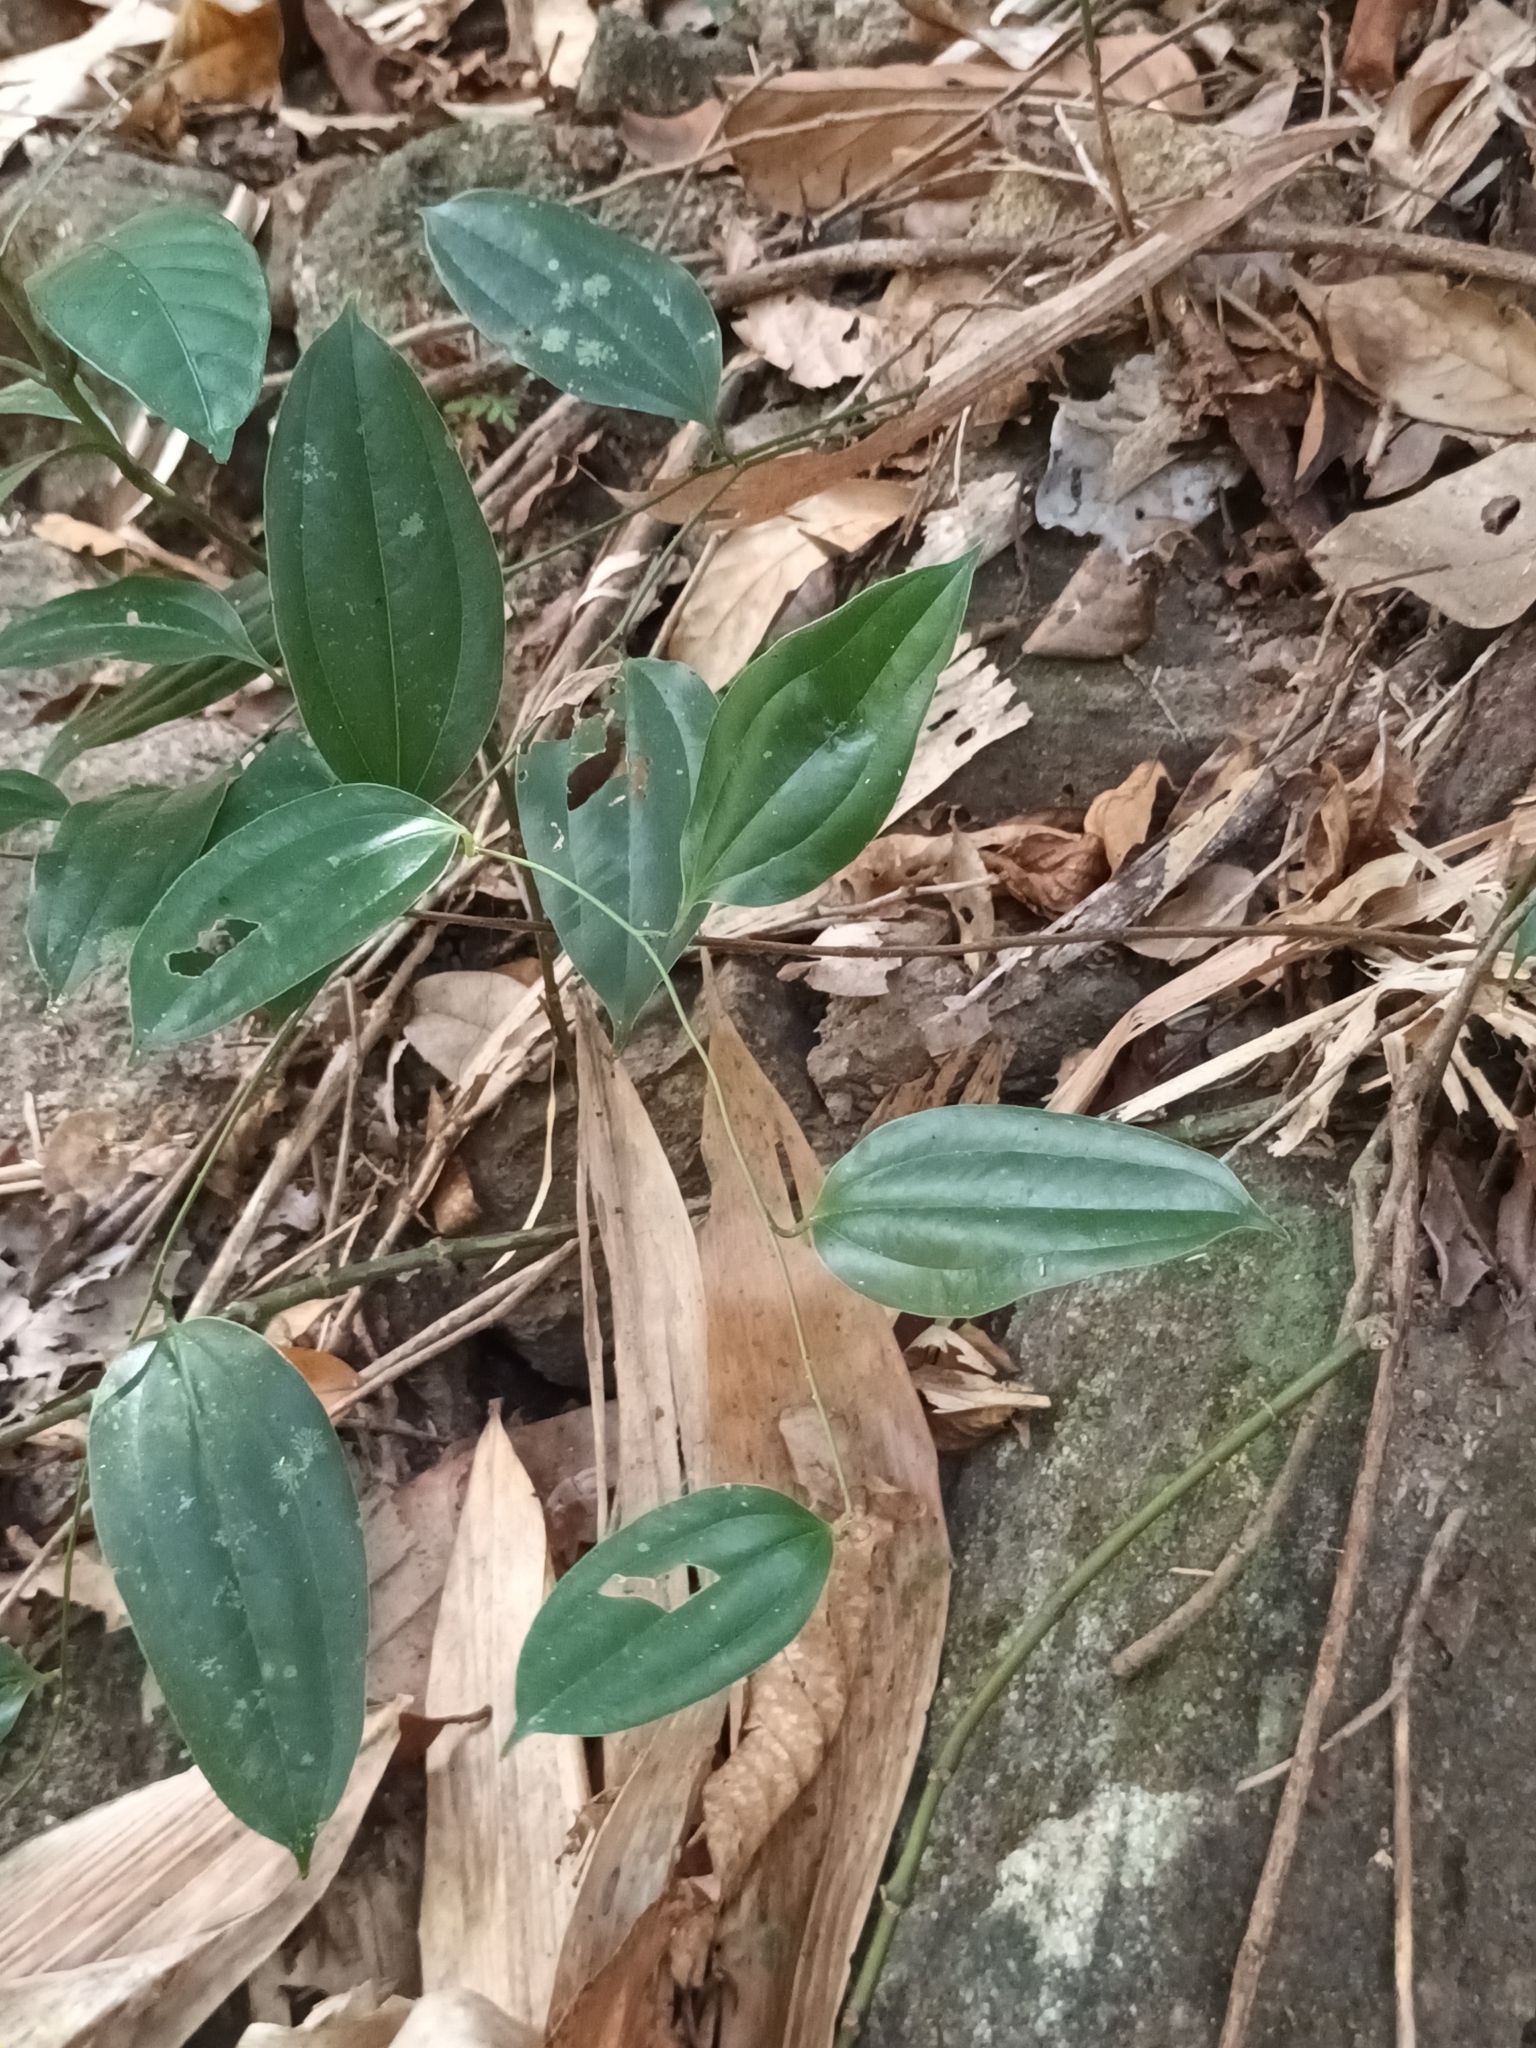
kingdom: Plantae
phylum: Tracheophyta
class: Liliopsida
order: Liliales
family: Smilacaceae
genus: Smilax
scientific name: Smilax zeylanica
